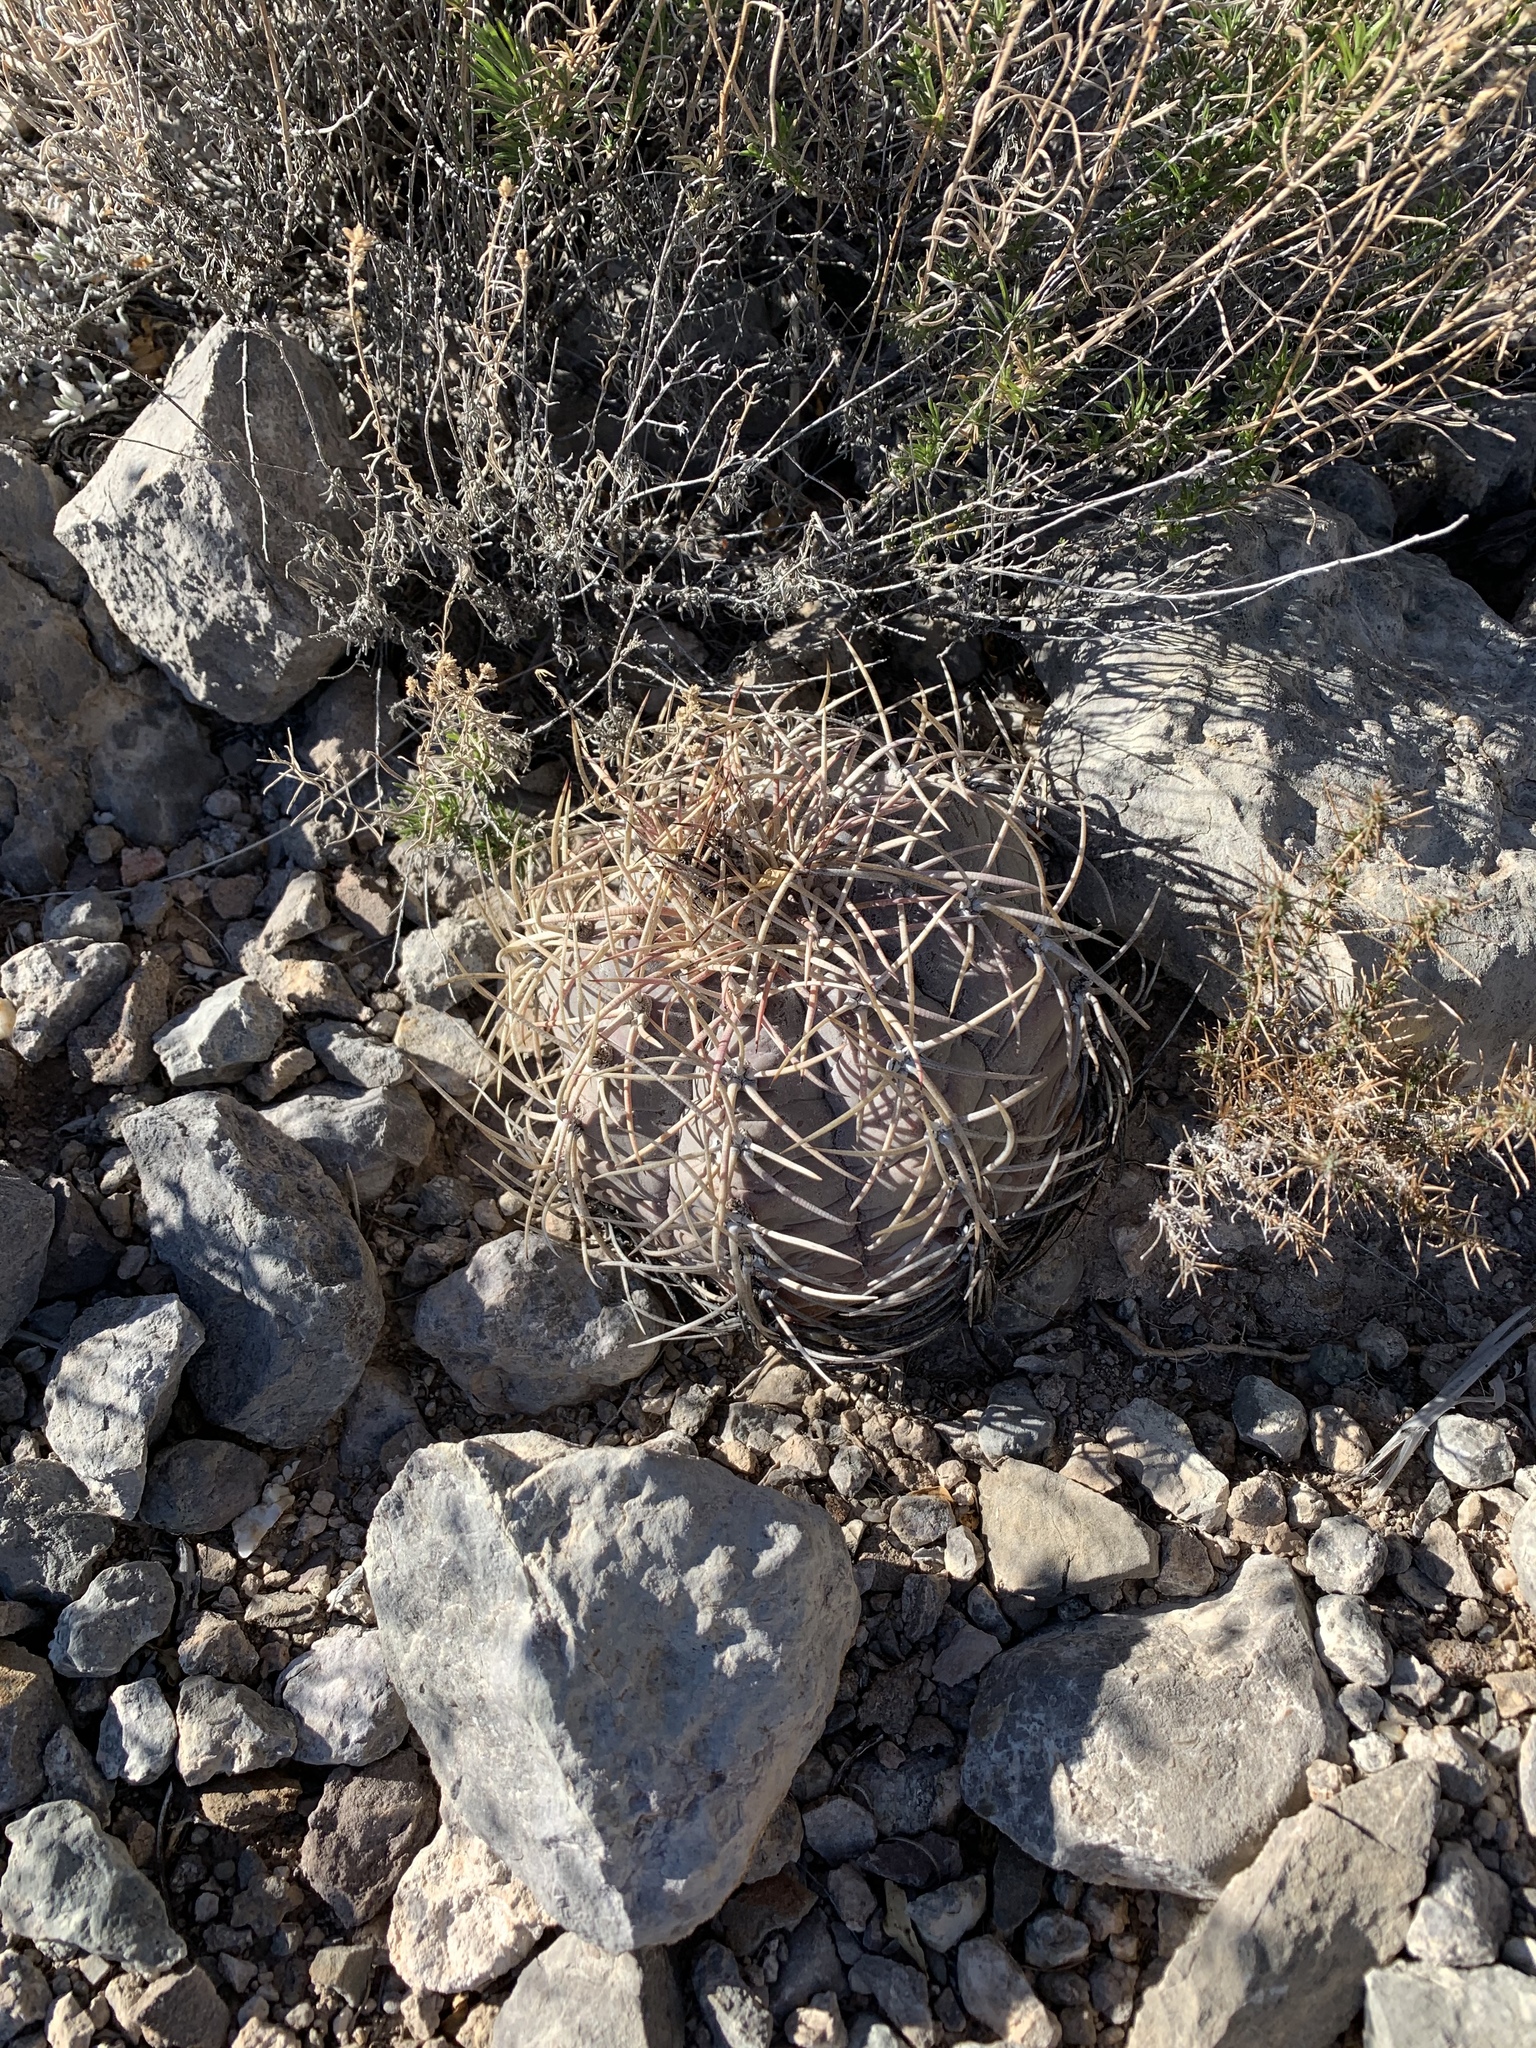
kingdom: Plantae
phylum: Tracheophyta
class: Magnoliopsida
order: Caryophyllales
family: Cactaceae
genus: Echinocactus
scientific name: Echinocactus horizonthalonius
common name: Devilshead
